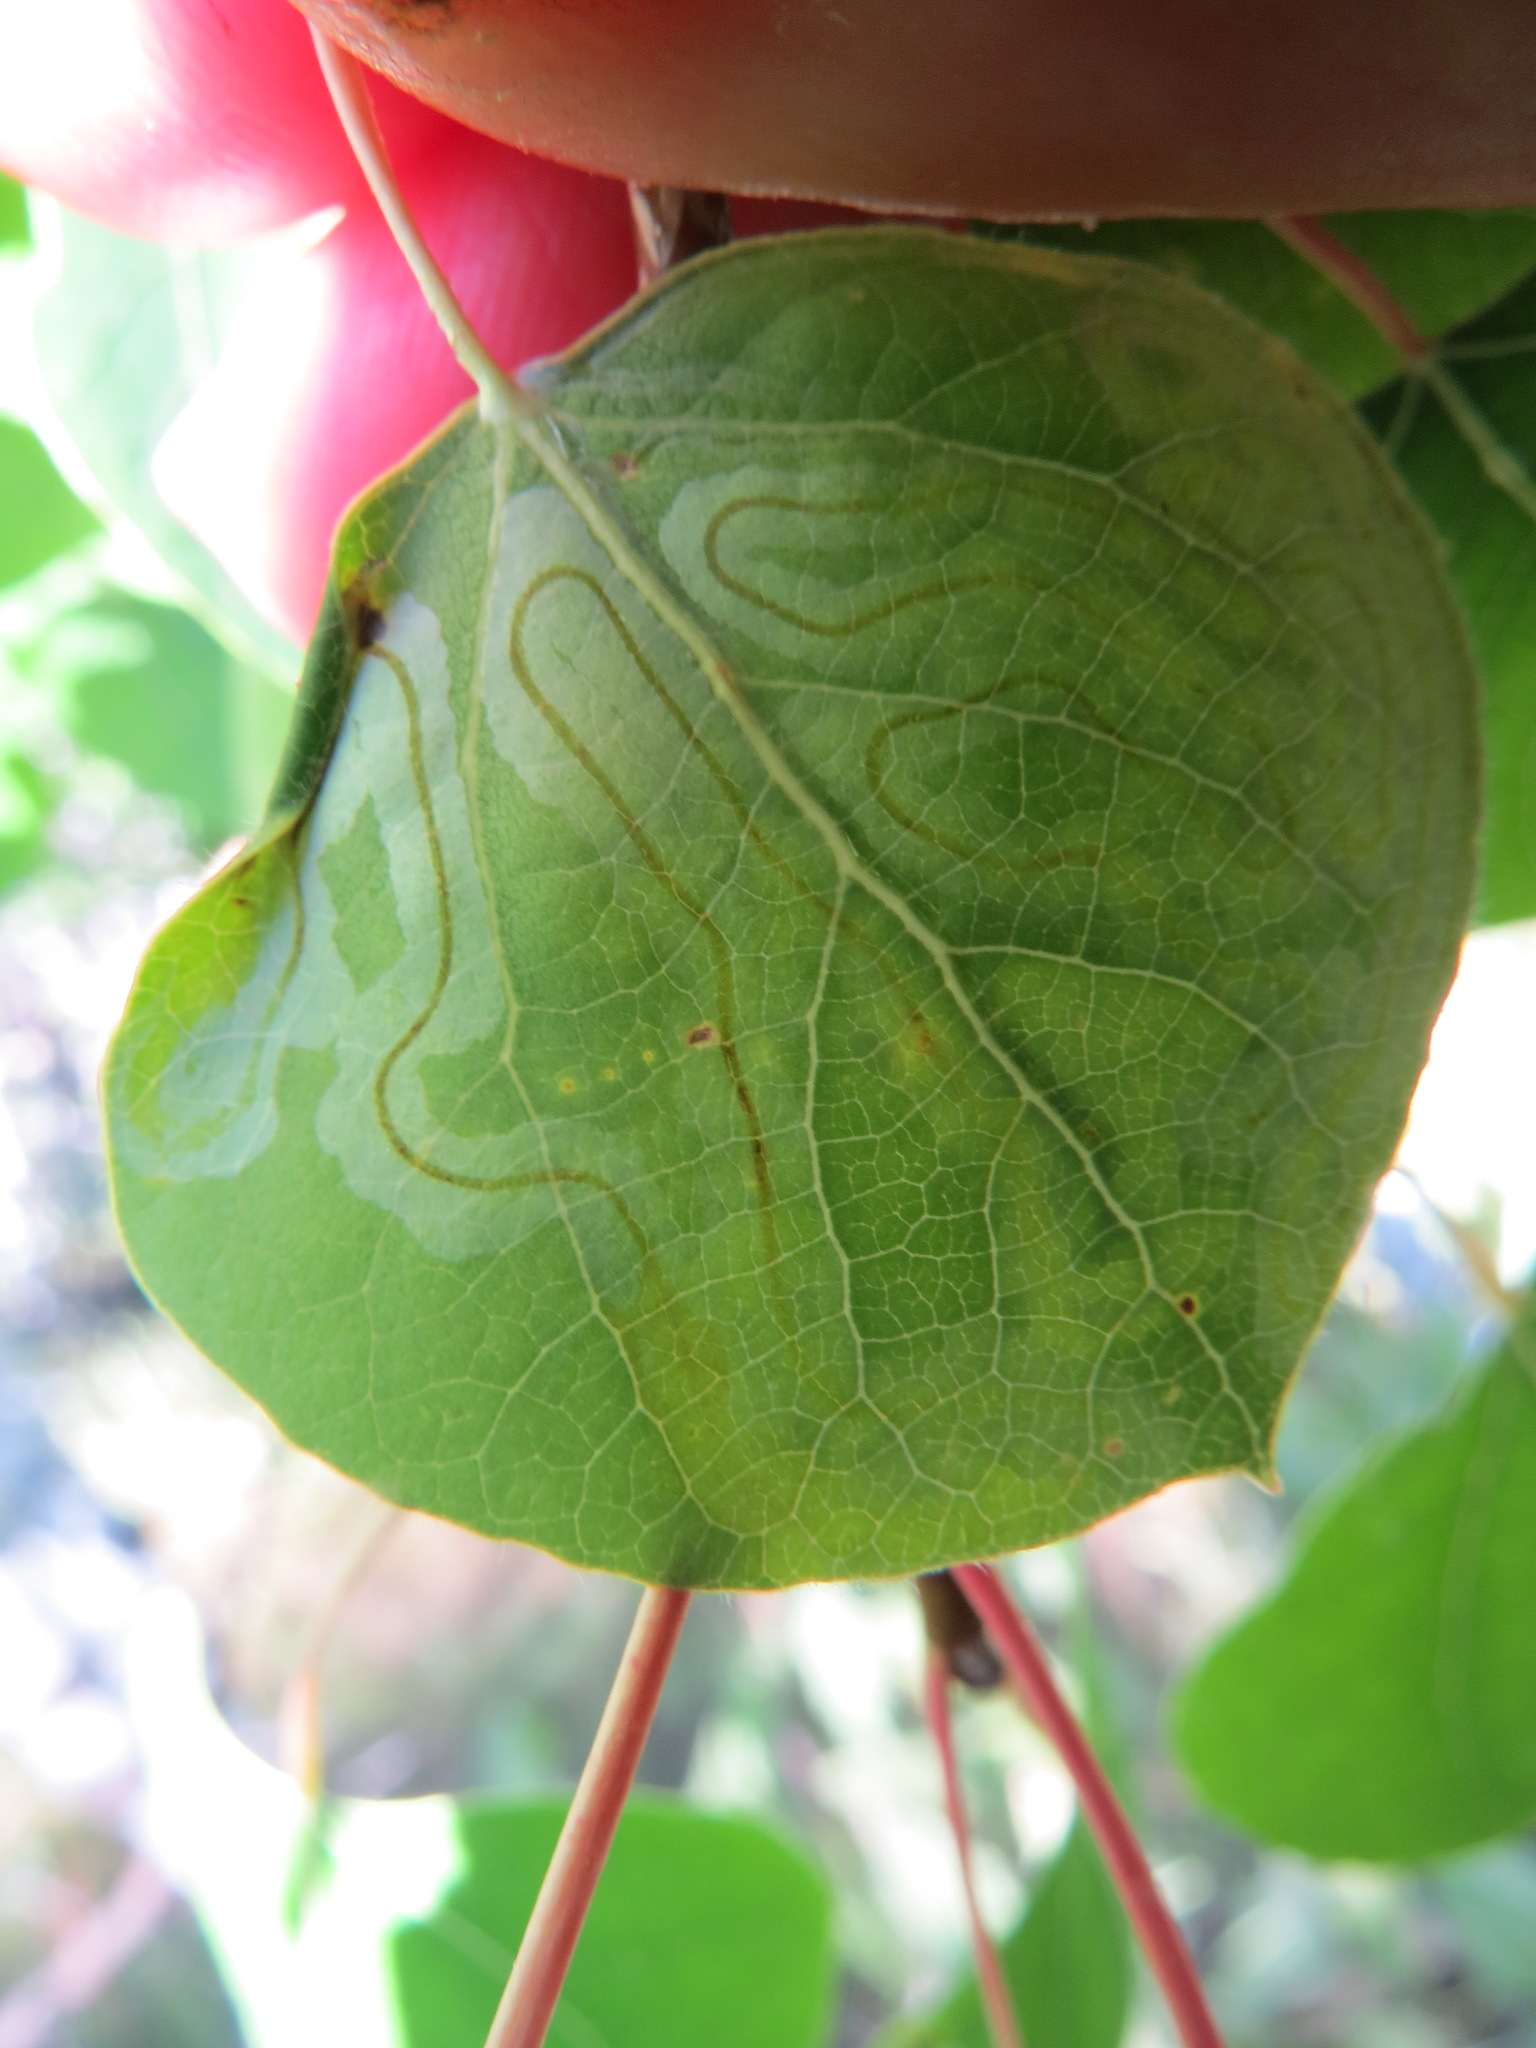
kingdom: Animalia
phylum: Arthropoda
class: Insecta
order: Lepidoptera
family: Gracillariidae
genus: Phyllocnistis
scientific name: Phyllocnistis populiella
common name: Aspen serpentine leafminer moth
